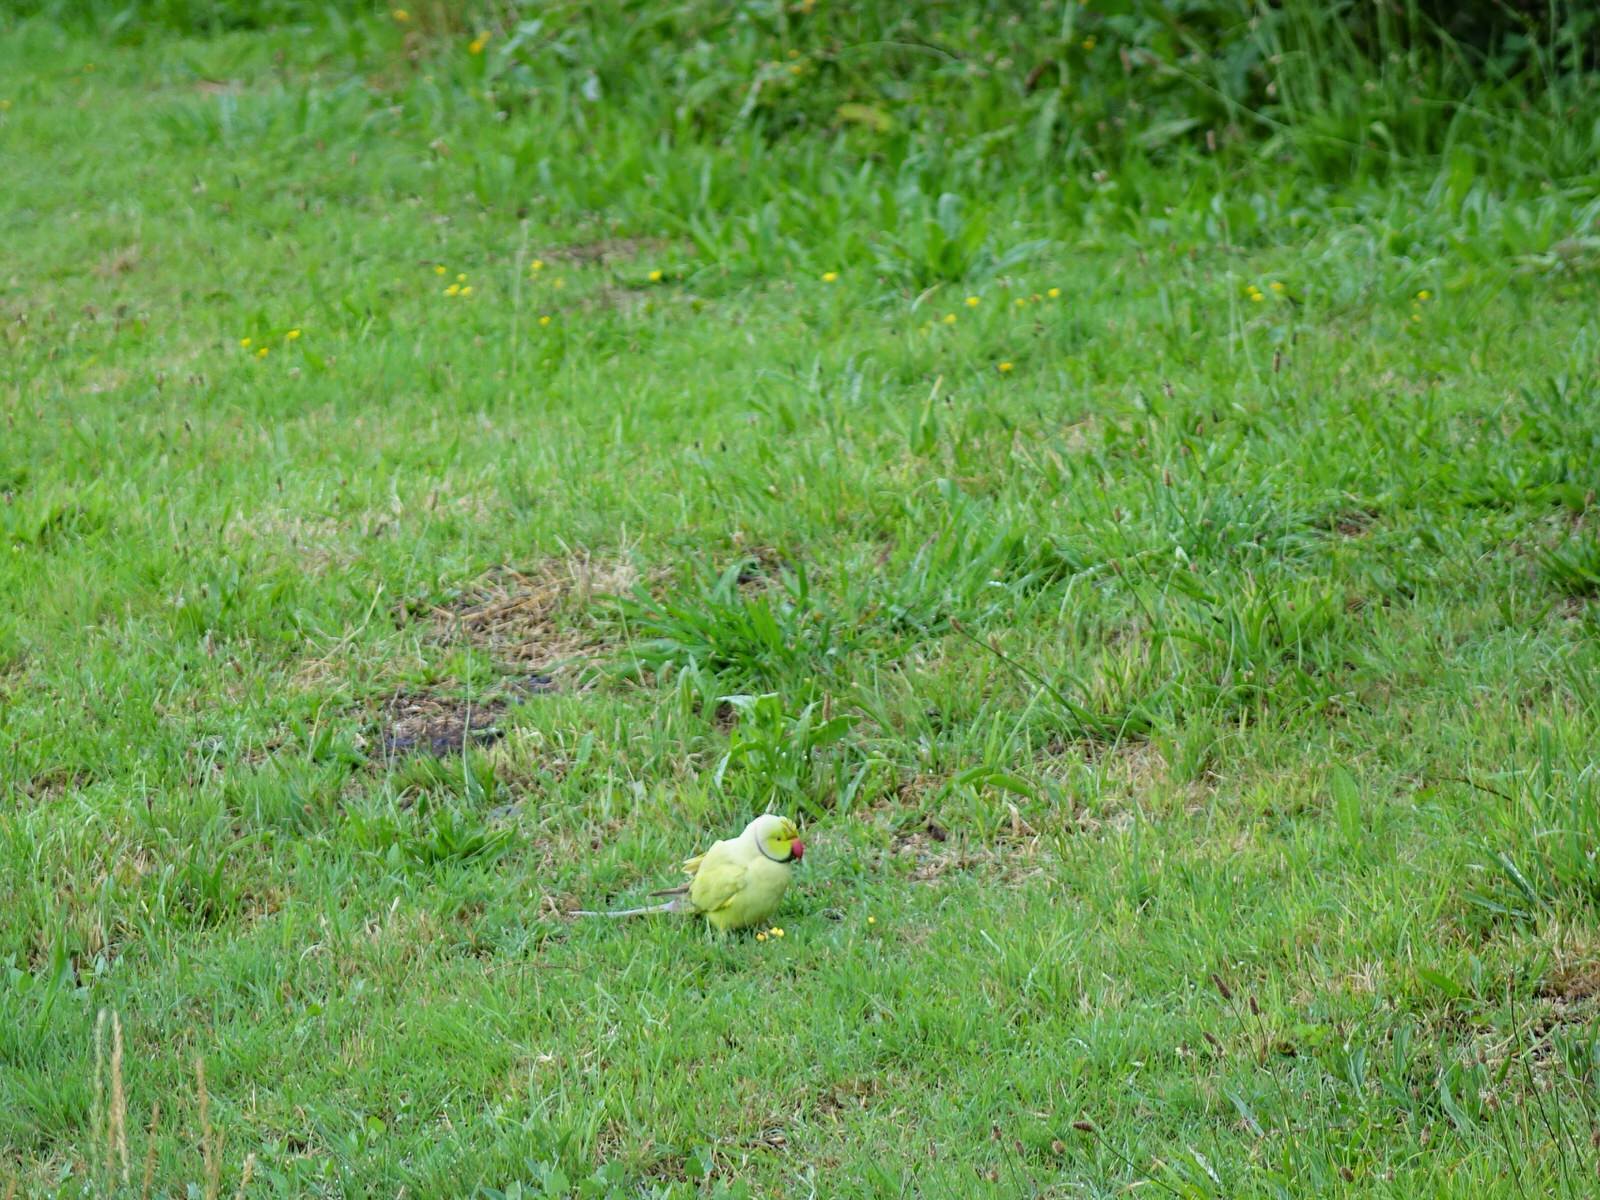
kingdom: Animalia
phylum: Chordata
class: Aves
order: Psittaciformes
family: Psittacidae
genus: Psittacula
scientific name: Psittacula krameri
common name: Rose-ringed parakeet
